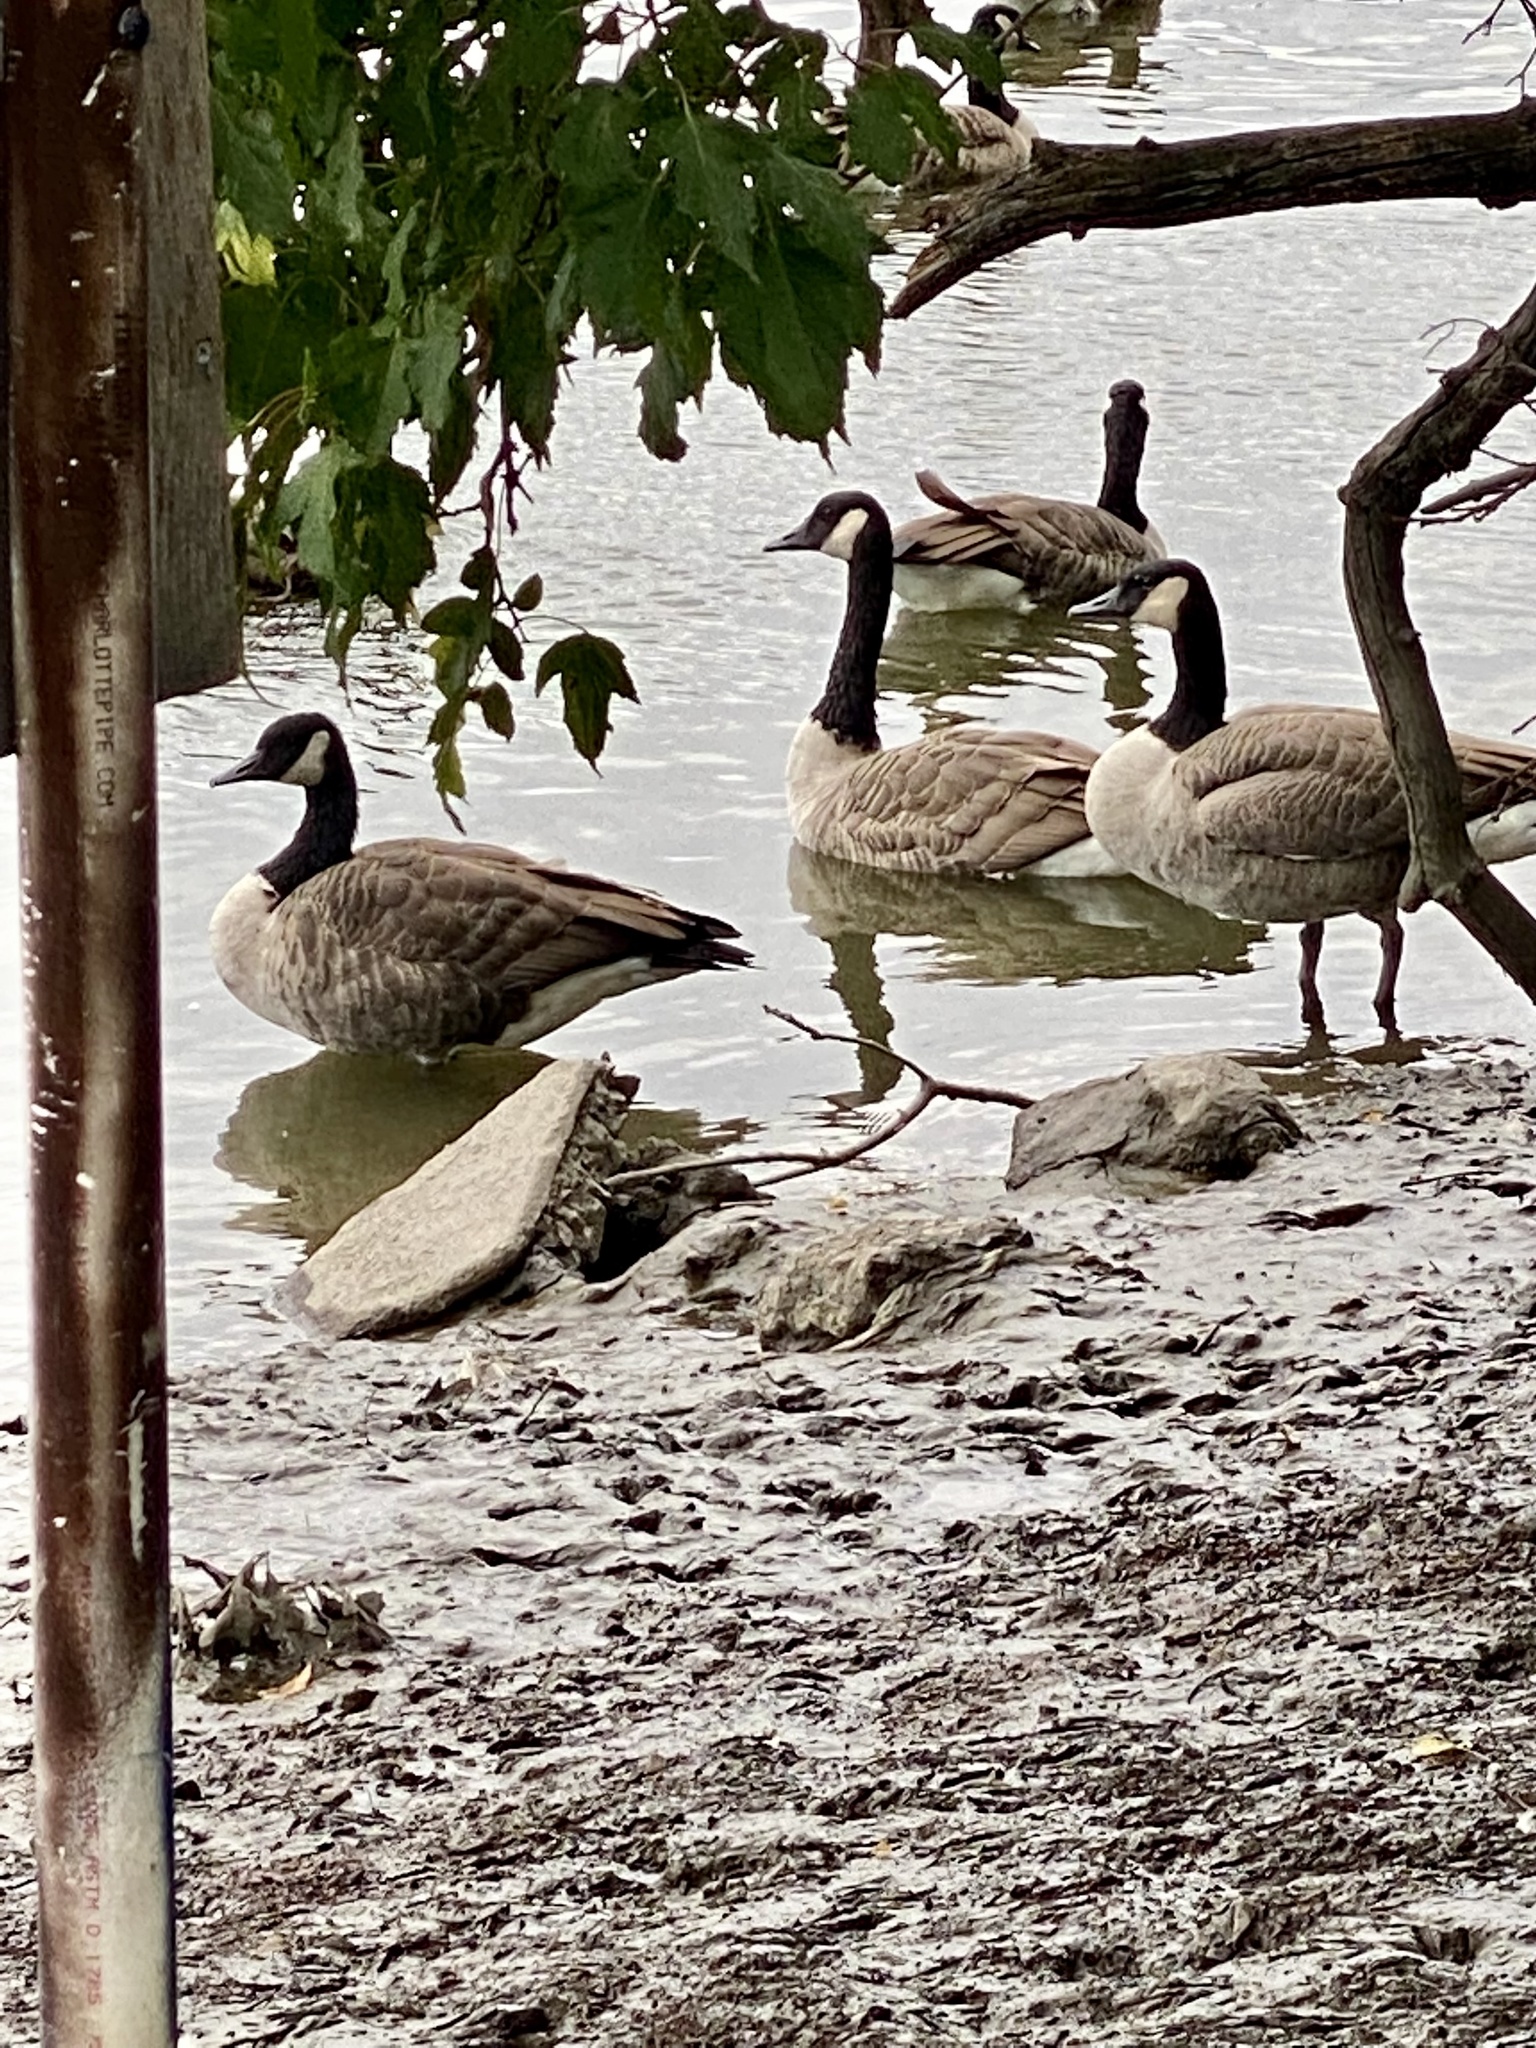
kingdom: Animalia
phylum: Chordata
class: Aves
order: Anseriformes
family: Anatidae
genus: Branta
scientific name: Branta canadensis
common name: Canada goose
